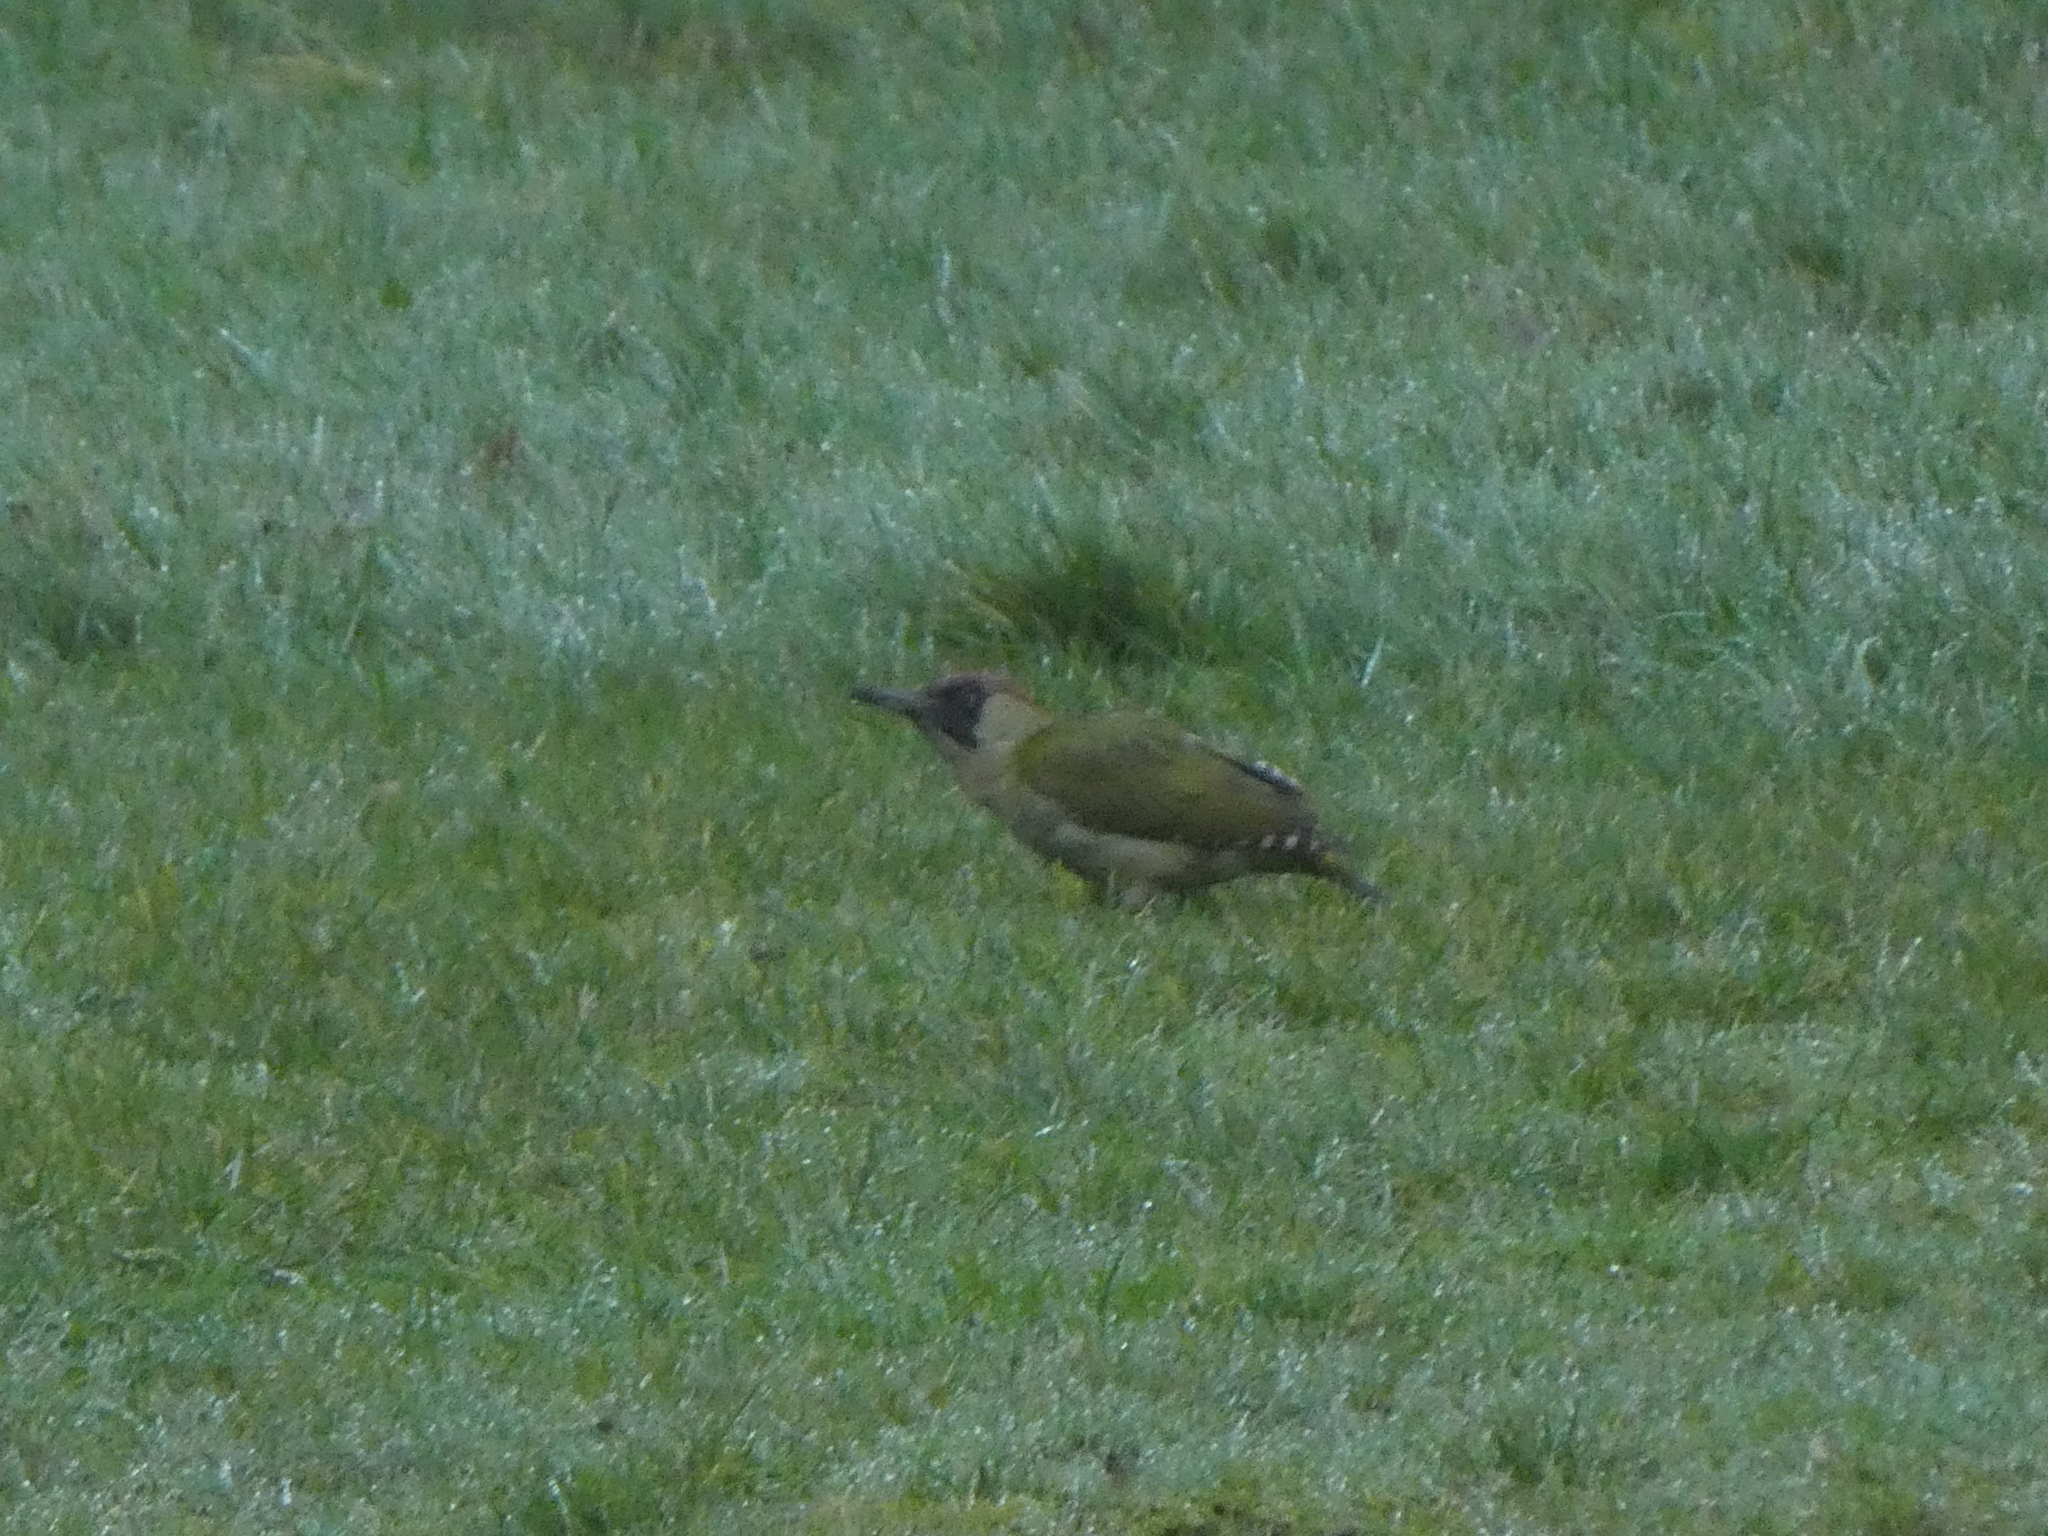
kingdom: Animalia
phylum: Chordata
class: Aves
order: Piciformes
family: Picidae
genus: Picus
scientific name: Picus viridis
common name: European green woodpecker
